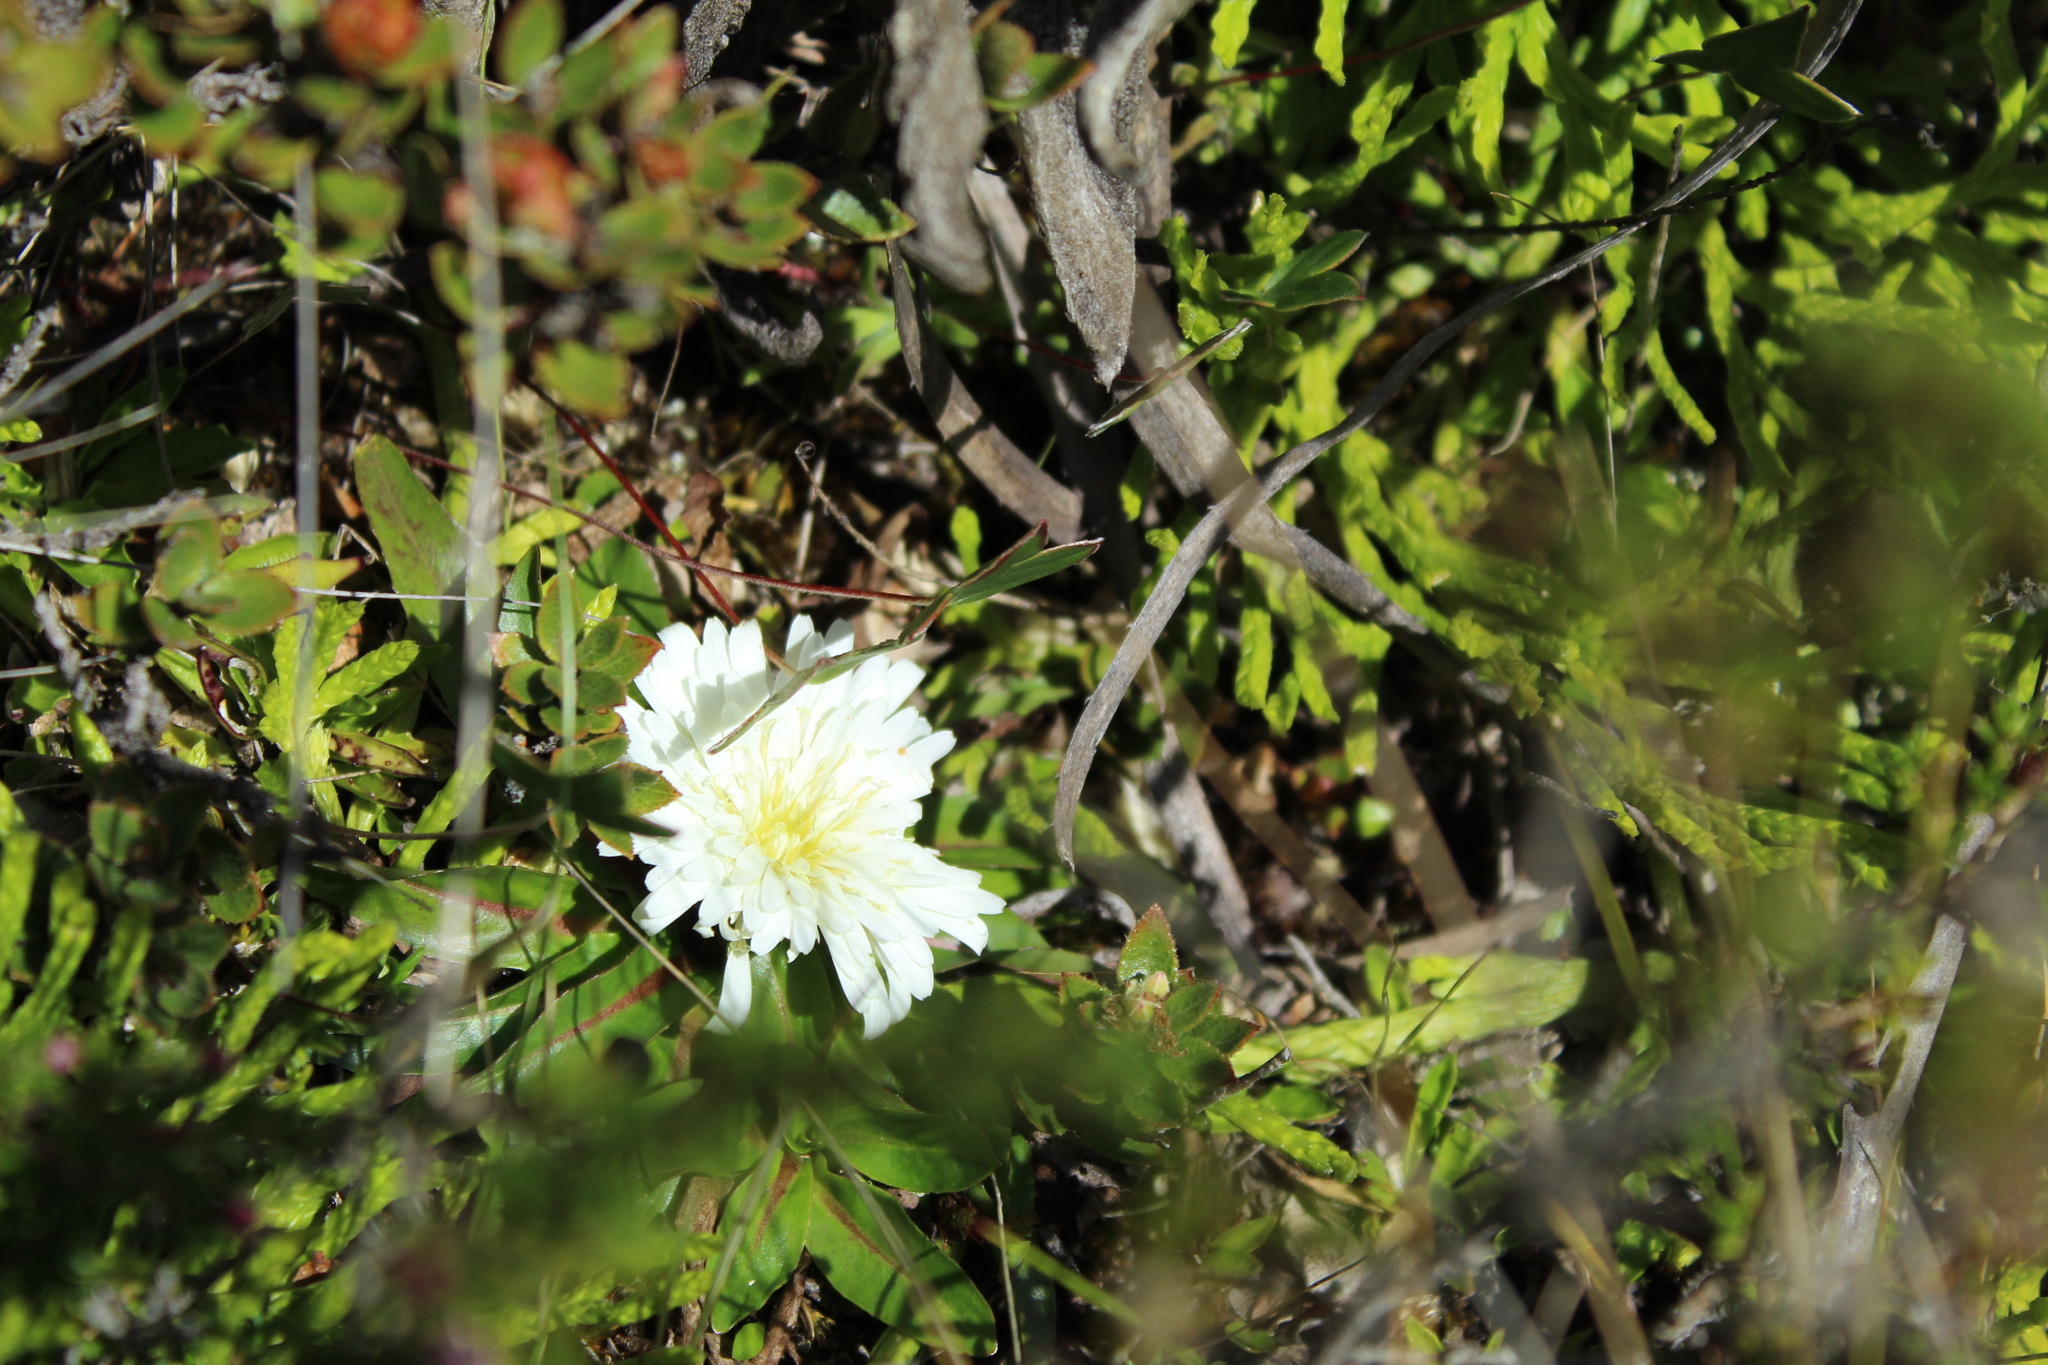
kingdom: Plantae
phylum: Tracheophyta
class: Magnoliopsida
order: Asterales
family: Asteraceae
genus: Hypochaeris
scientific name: Hypochaeris sessiliflora
